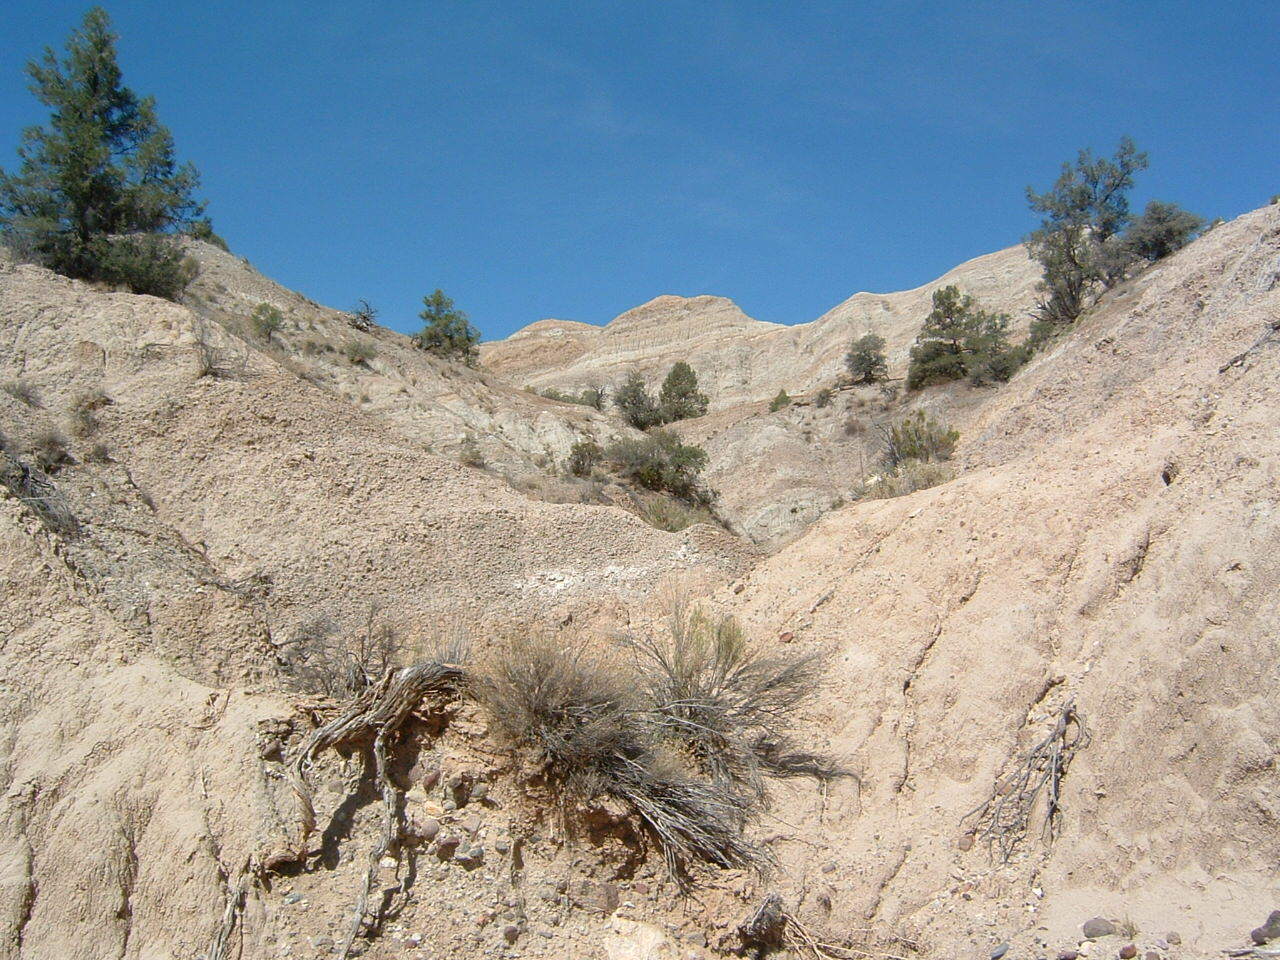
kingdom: Plantae
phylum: Tracheophyta
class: Pinopsida
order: Pinales
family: Pinaceae
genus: Pinus
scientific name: Pinus monophylla
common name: One-leaved nut pine
